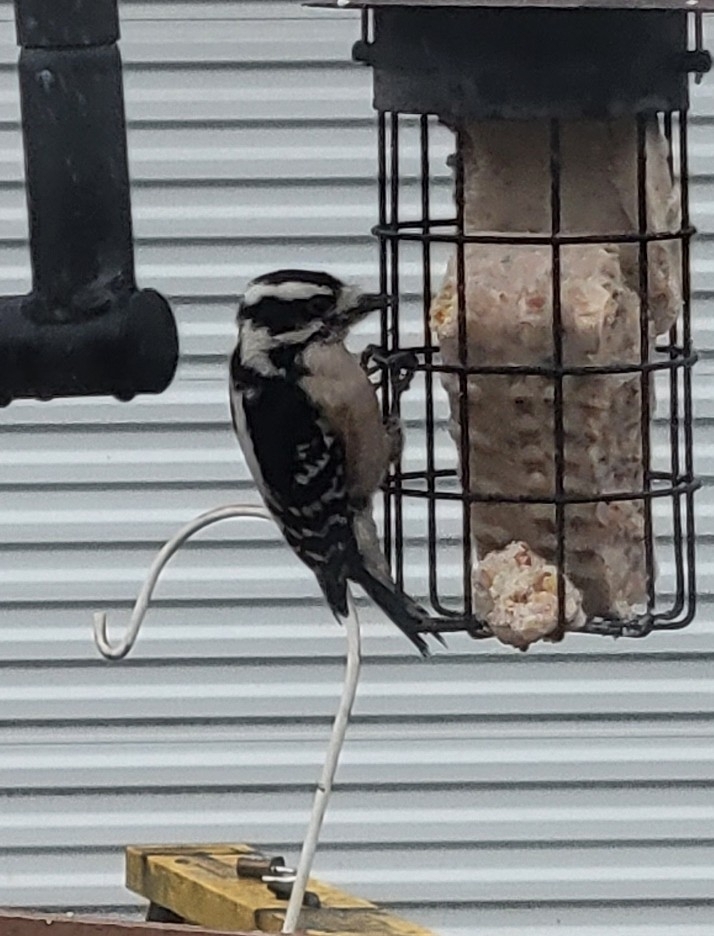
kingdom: Animalia
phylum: Chordata
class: Aves
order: Piciformes
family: Picidae
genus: Dryobates
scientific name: Dryobates pubescens
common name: Downy woodpecker
